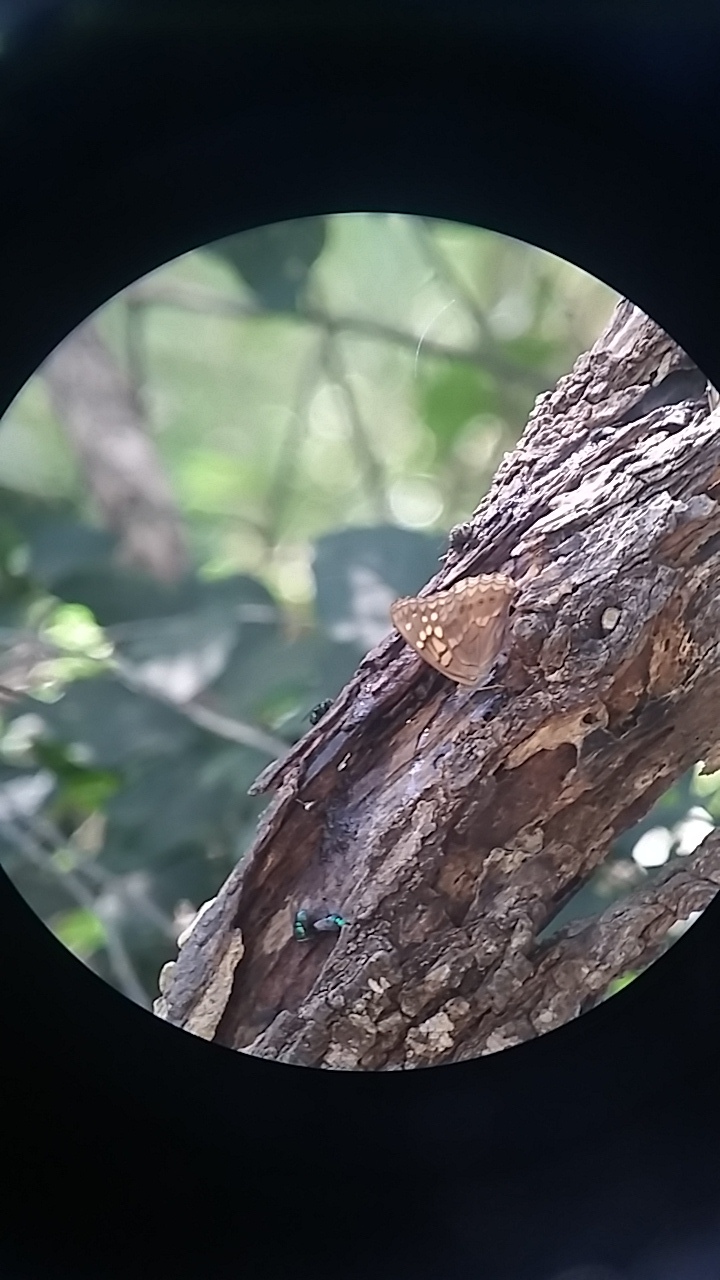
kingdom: Animalia
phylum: Arthropoda
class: Insecta
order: Lepidoptera
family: Nymphalidae
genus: Asterocampa
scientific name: Asterocampa clyton
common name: Tawny emperor
